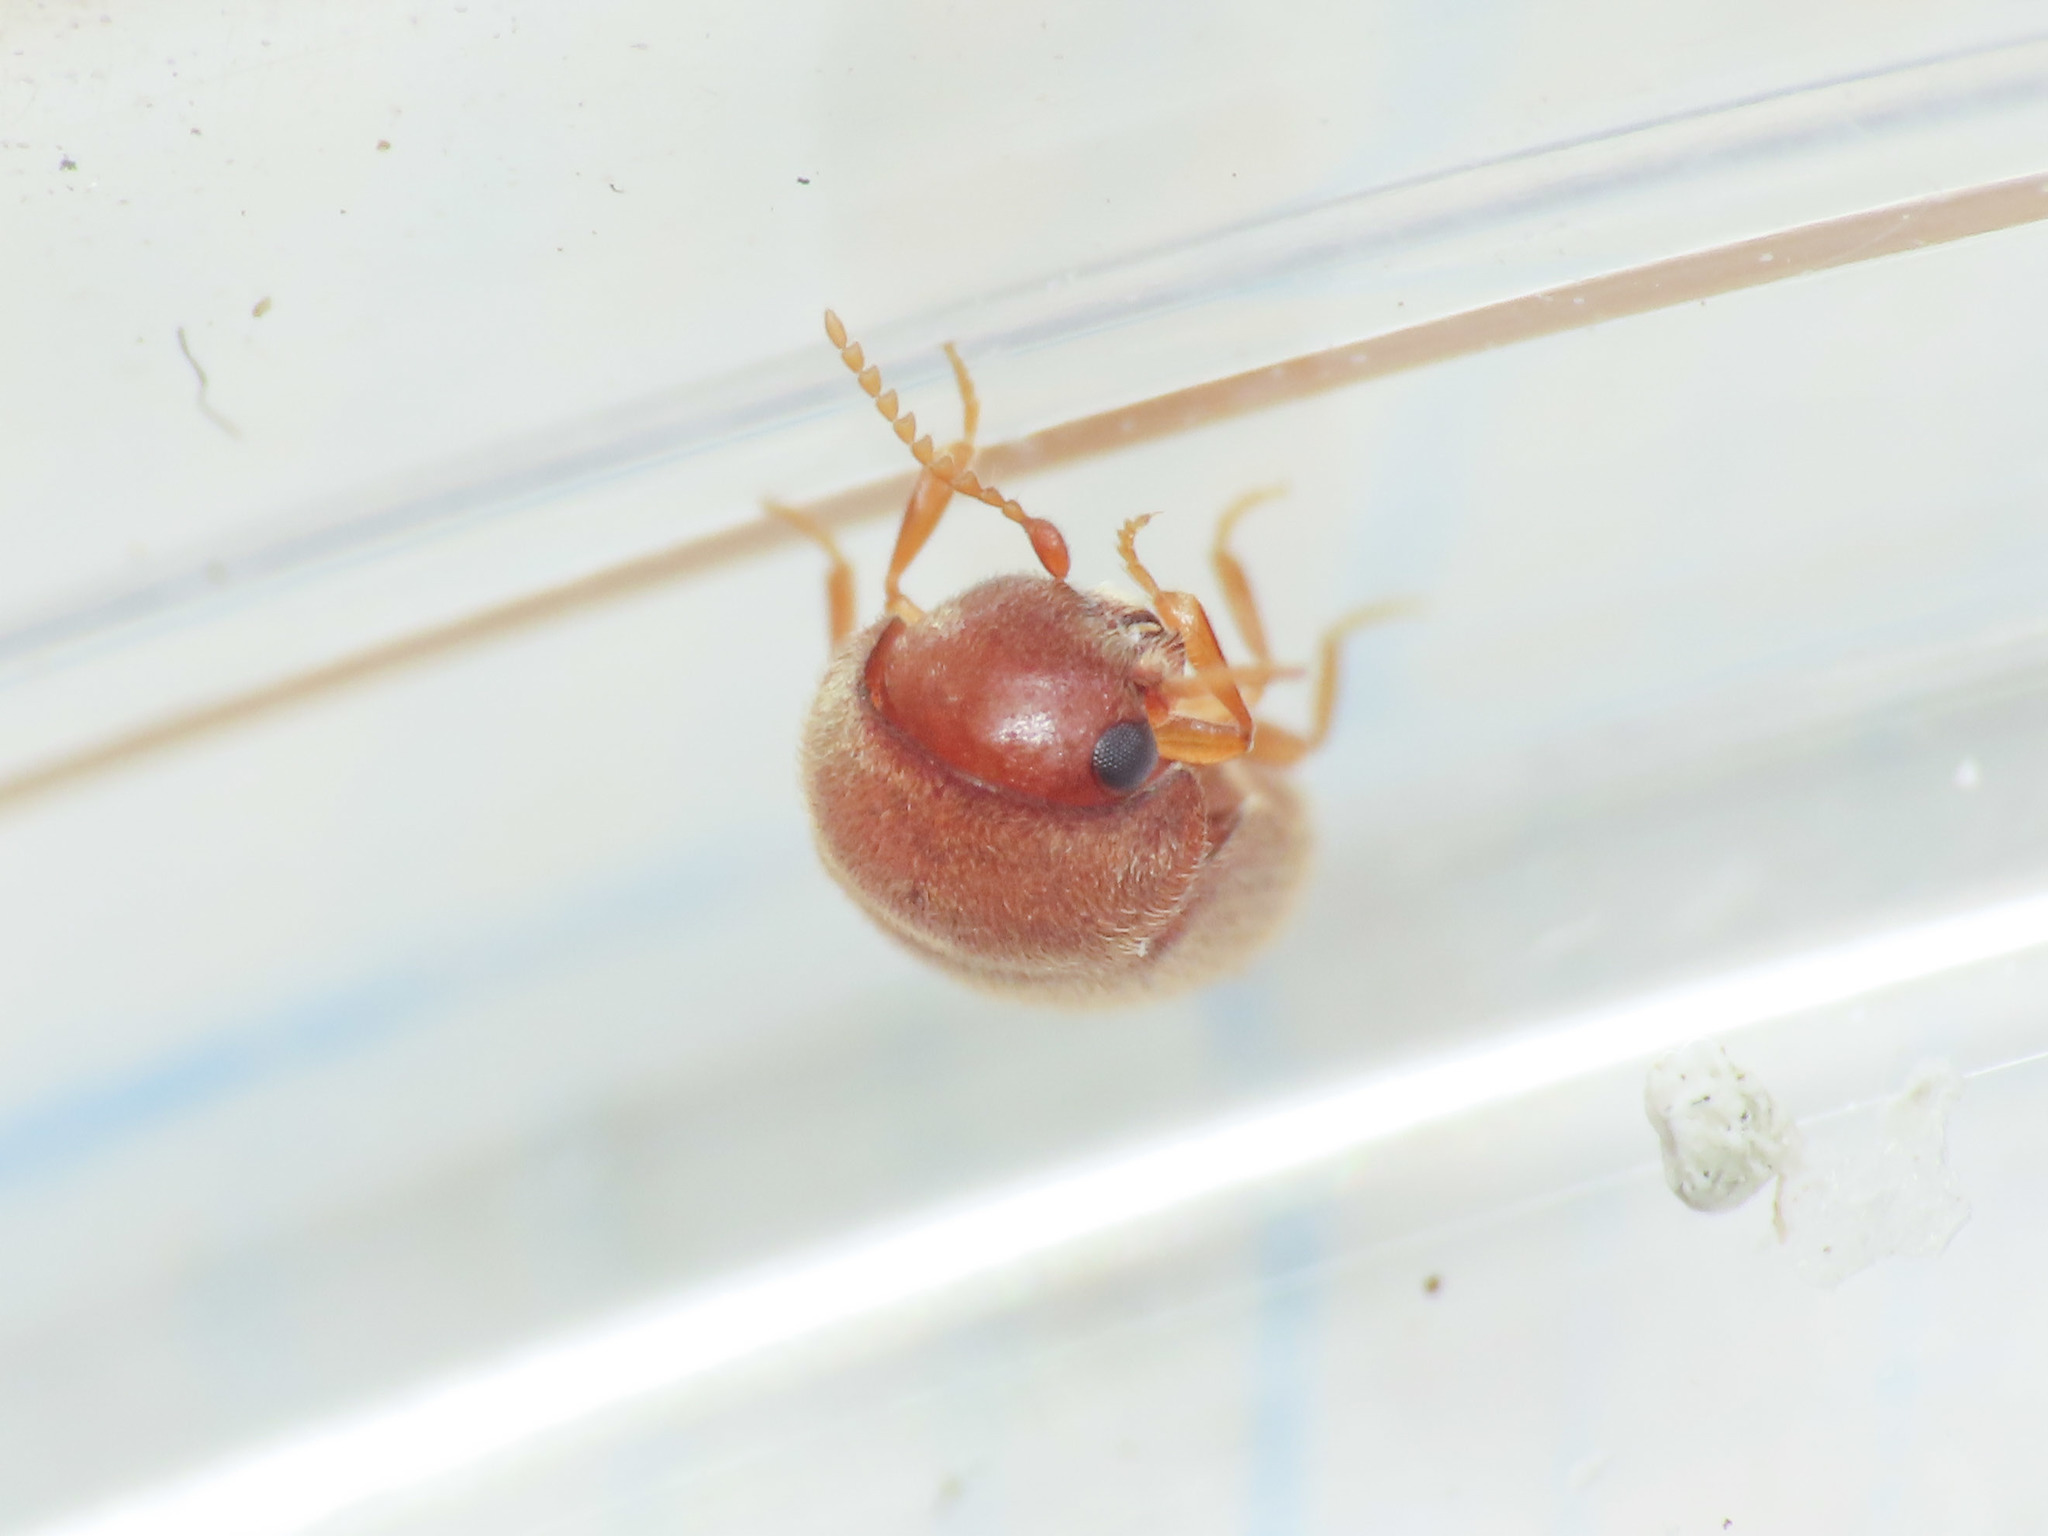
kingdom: Animalia
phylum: Arthropoda
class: Insecta
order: Coleoptera
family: Anobiidae
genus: Lasioderma
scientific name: Lasioderma serricorne
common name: Cigarette beetle
